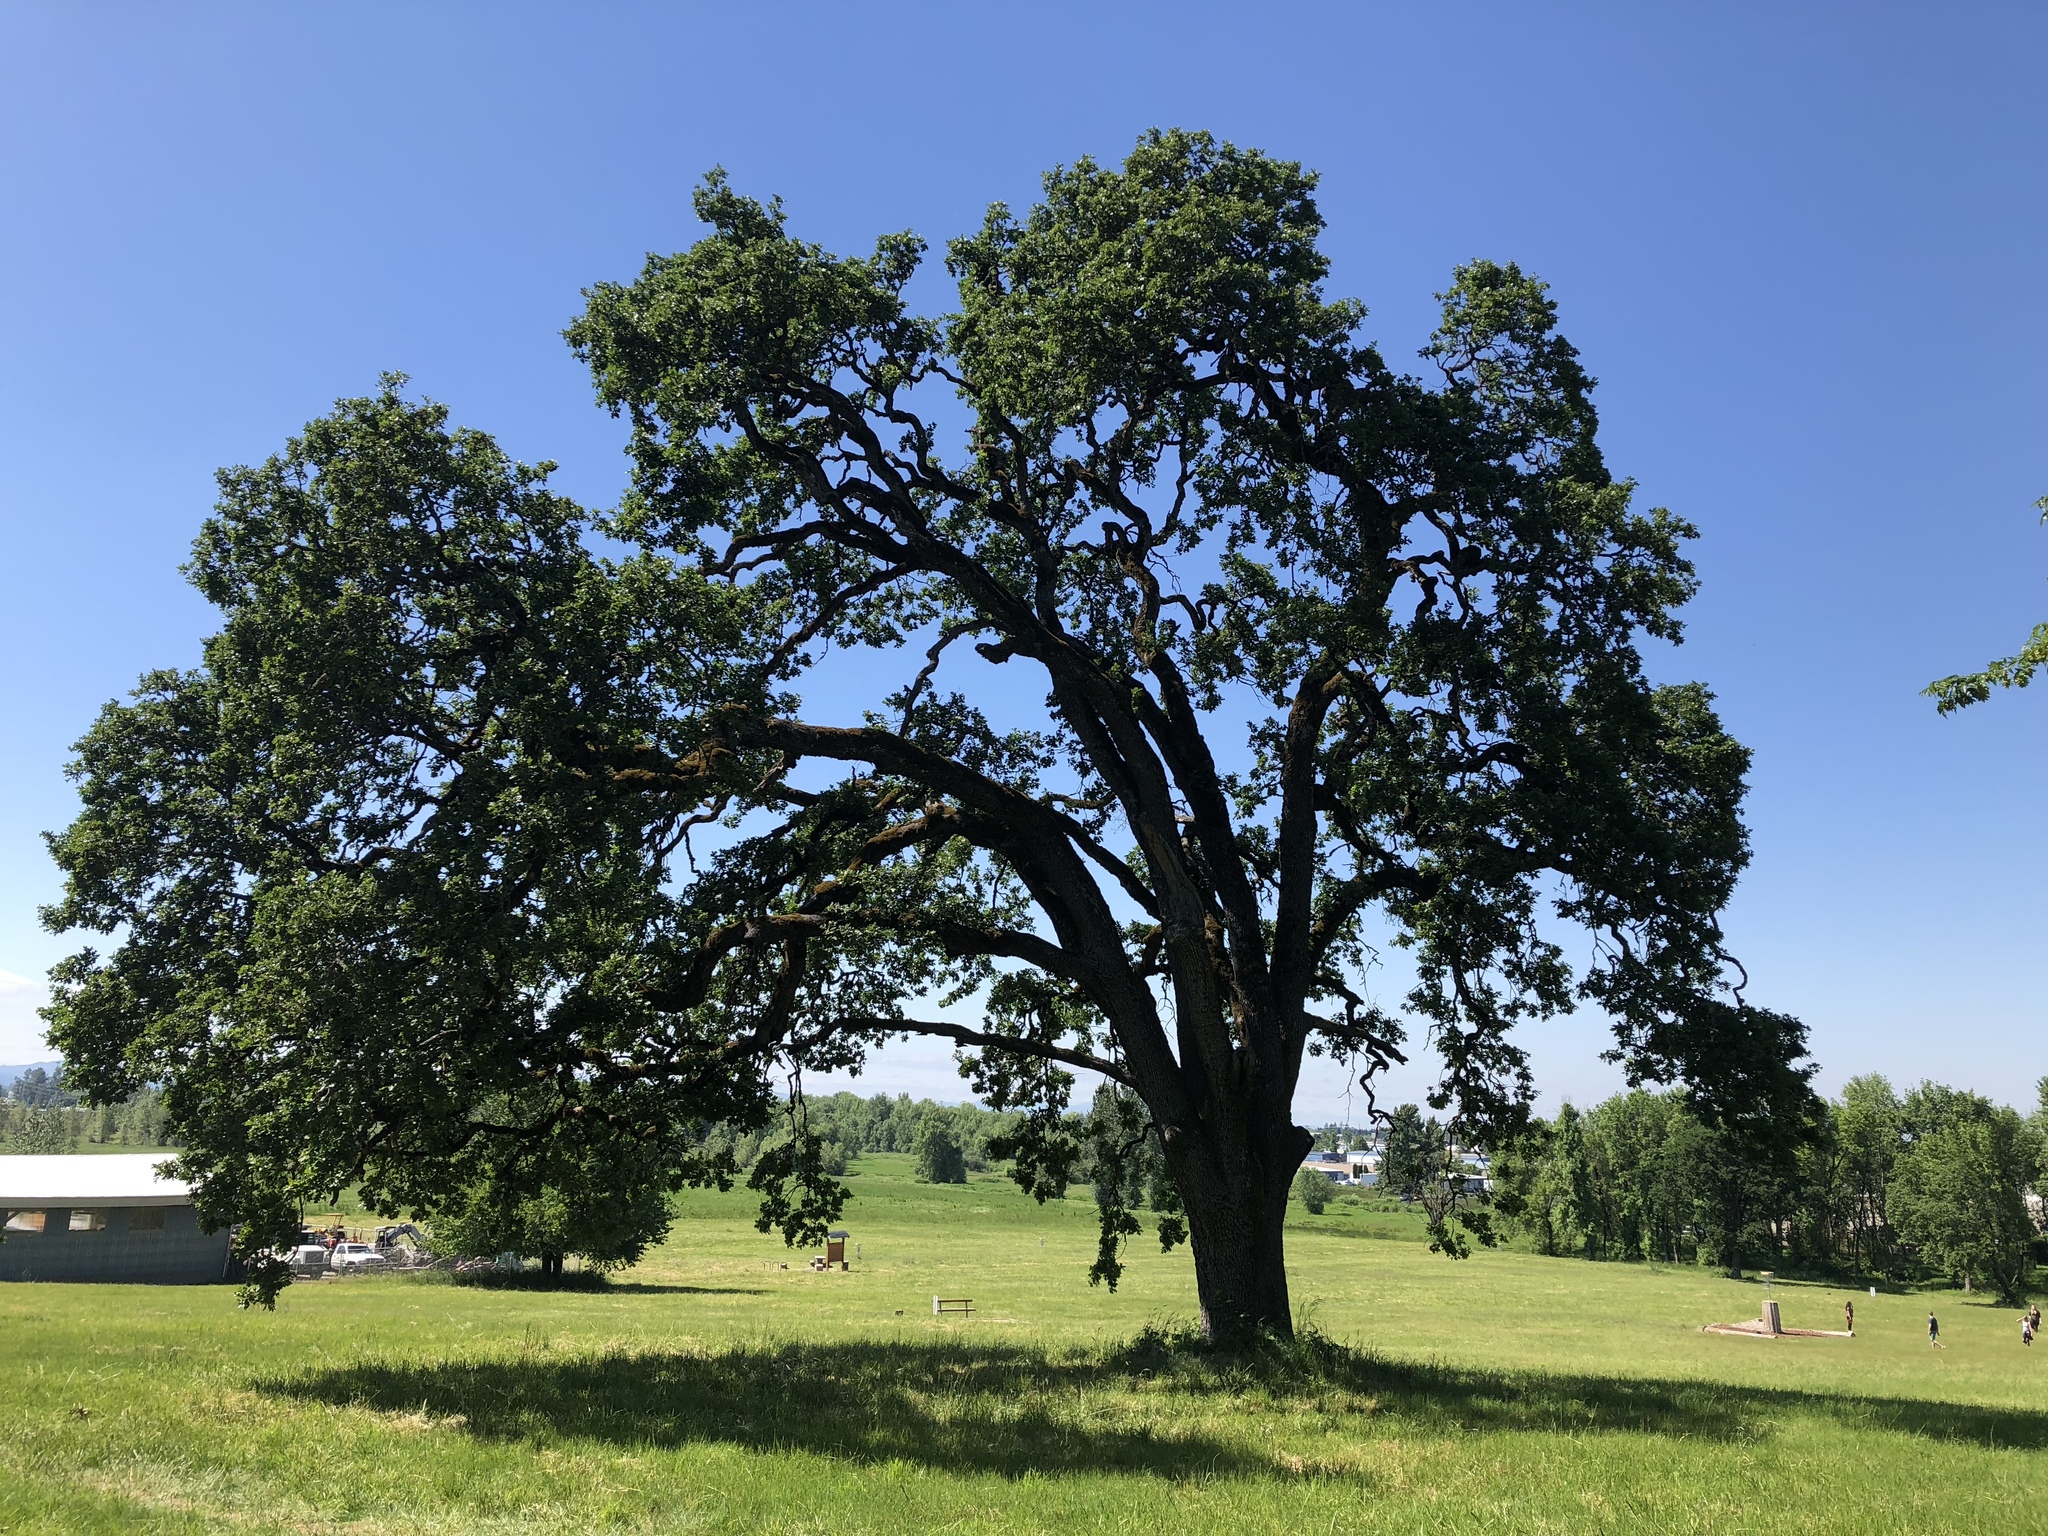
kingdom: Plantae
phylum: Tracheophyta
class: Magnoliopsida
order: Fagales
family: Fagaceae
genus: Quercus
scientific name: Quercus garryana
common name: Garry oak
